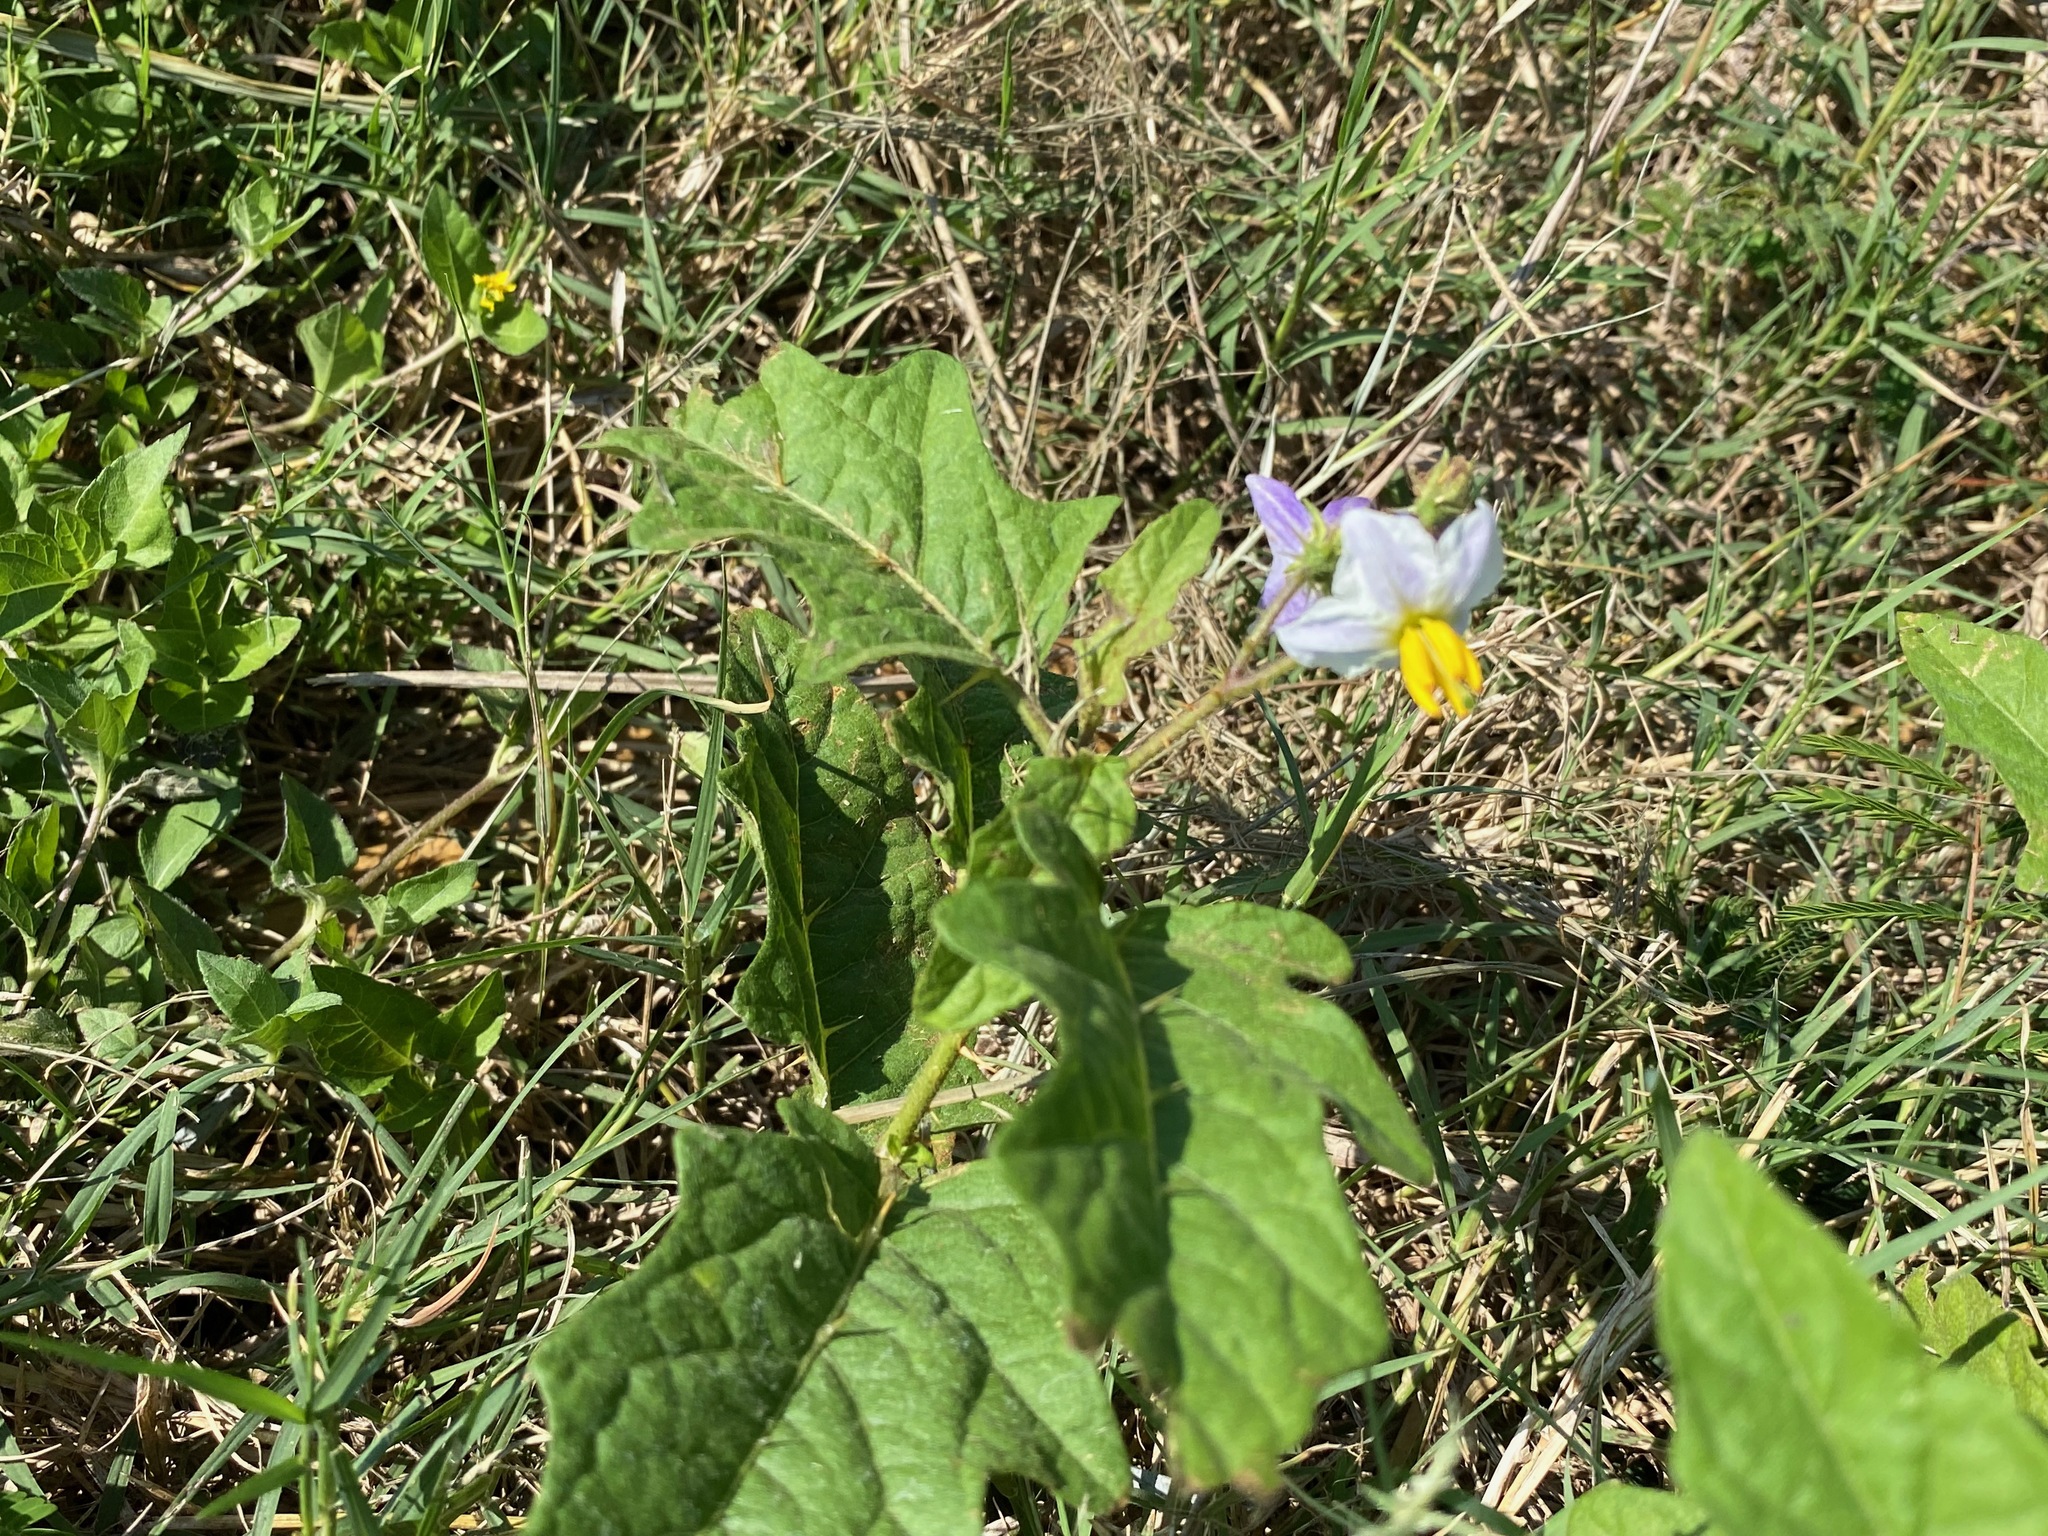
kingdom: Plantae
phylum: Tracheophyta
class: Magnoliopsida
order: Solanales
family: Solanaceae
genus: Solanum
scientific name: Solanum carolinense
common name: Horse-nettle
